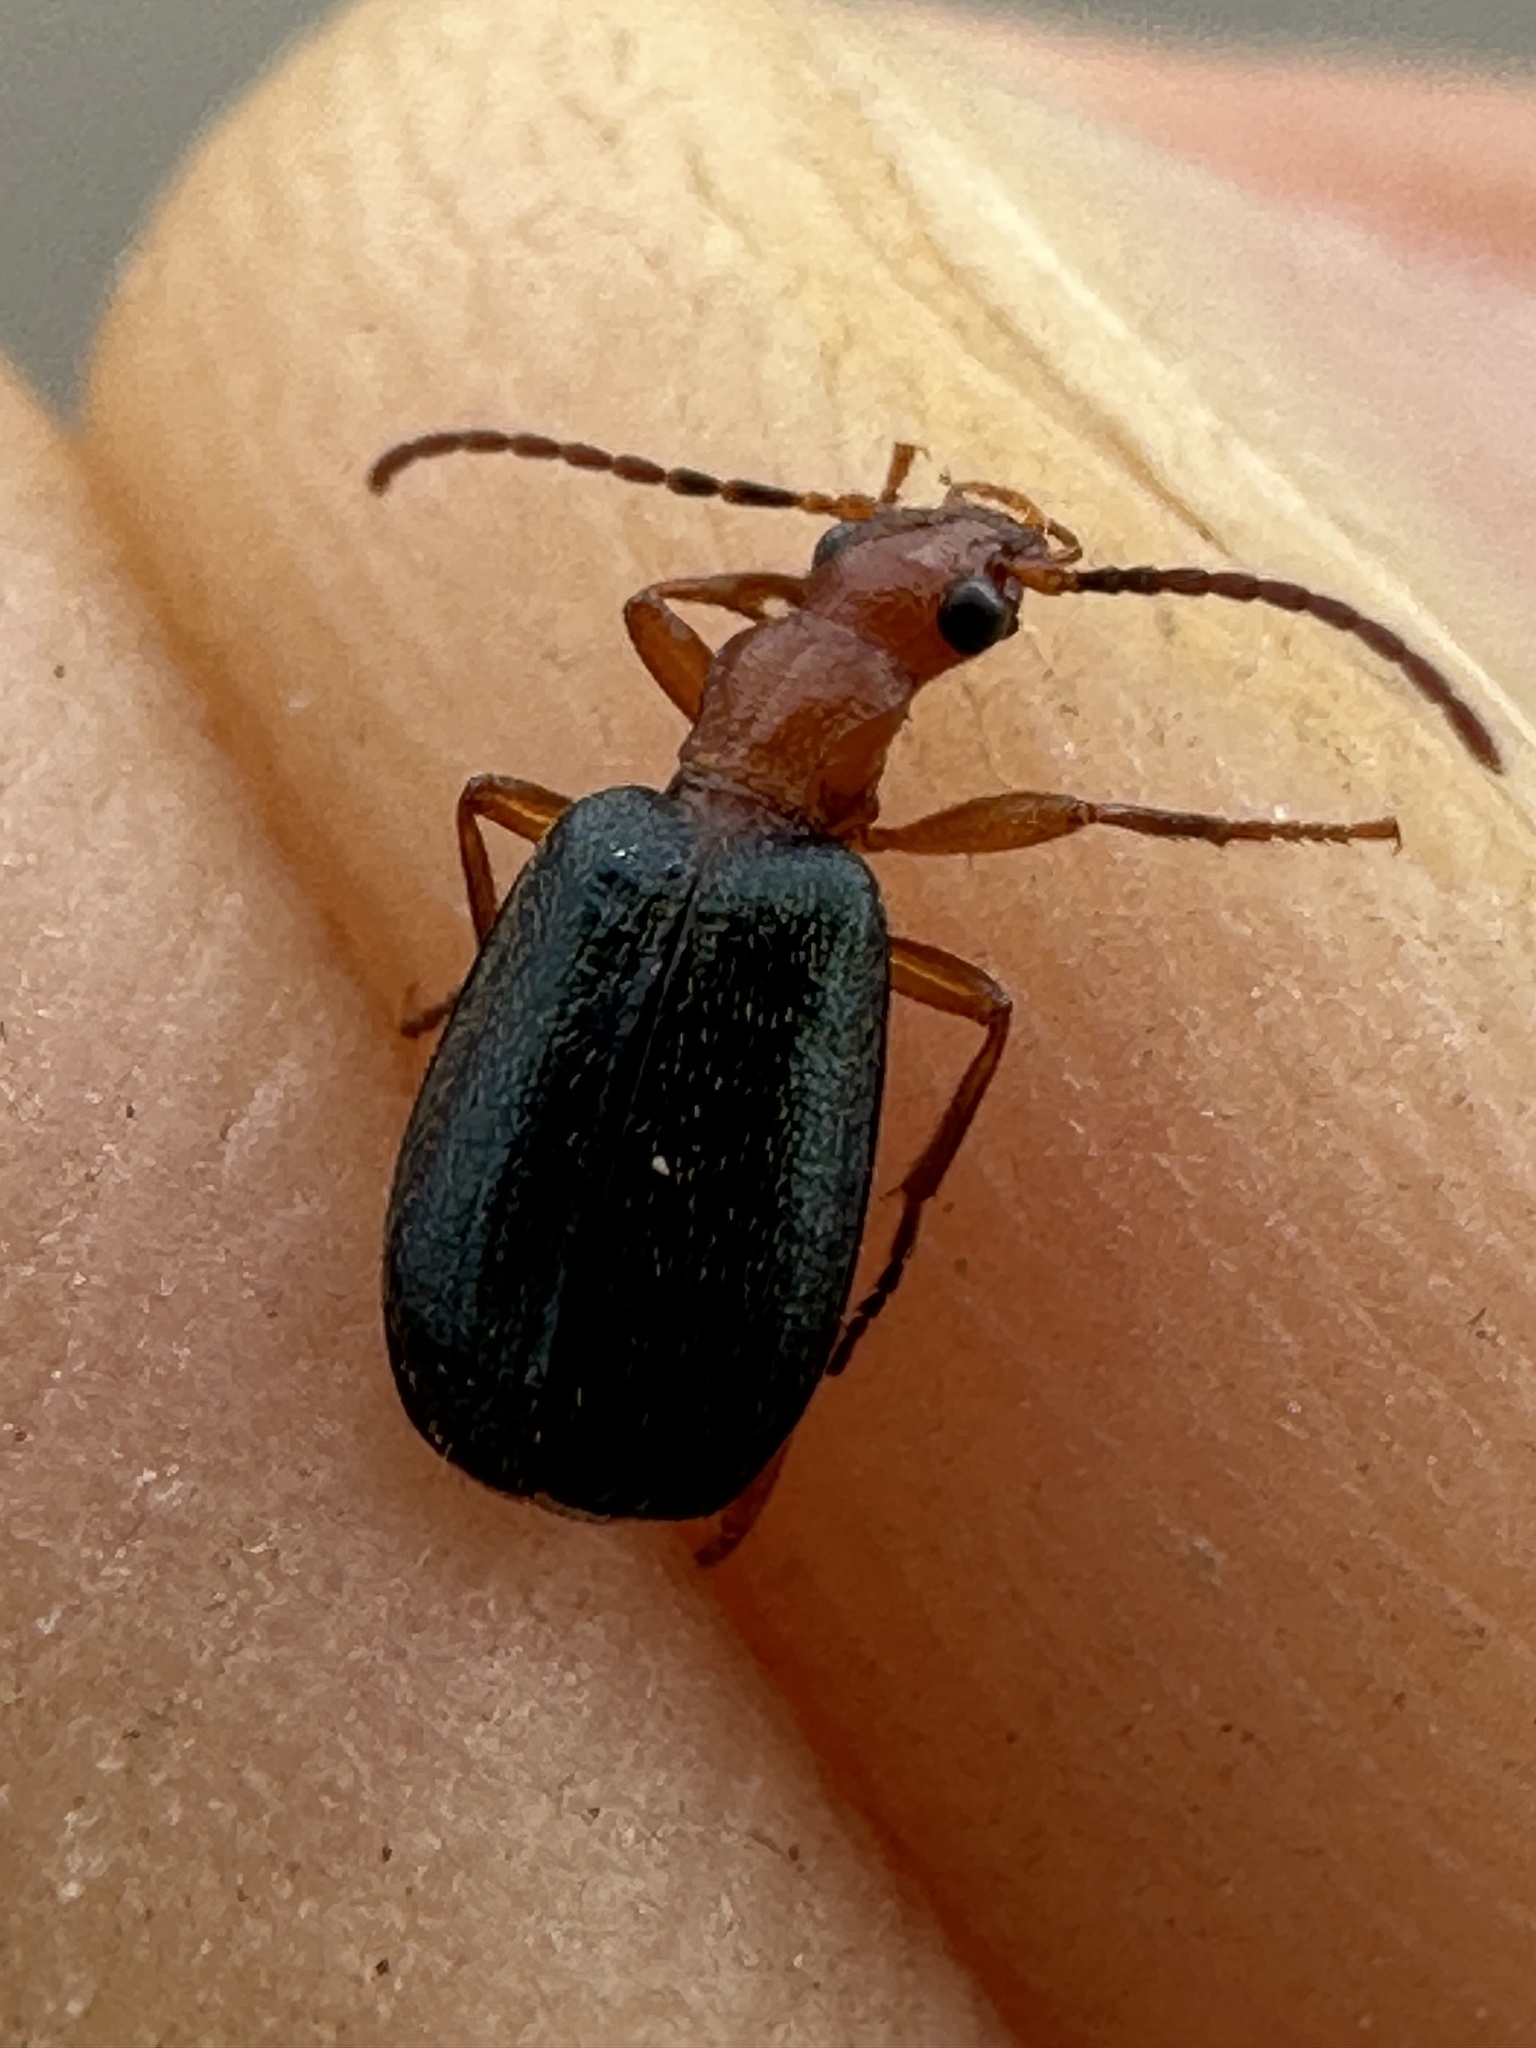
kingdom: Animalia
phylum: Arthropoda
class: Insecta
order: Coleoptera
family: Carabidae
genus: Brachinus
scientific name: Brachinus explodens
